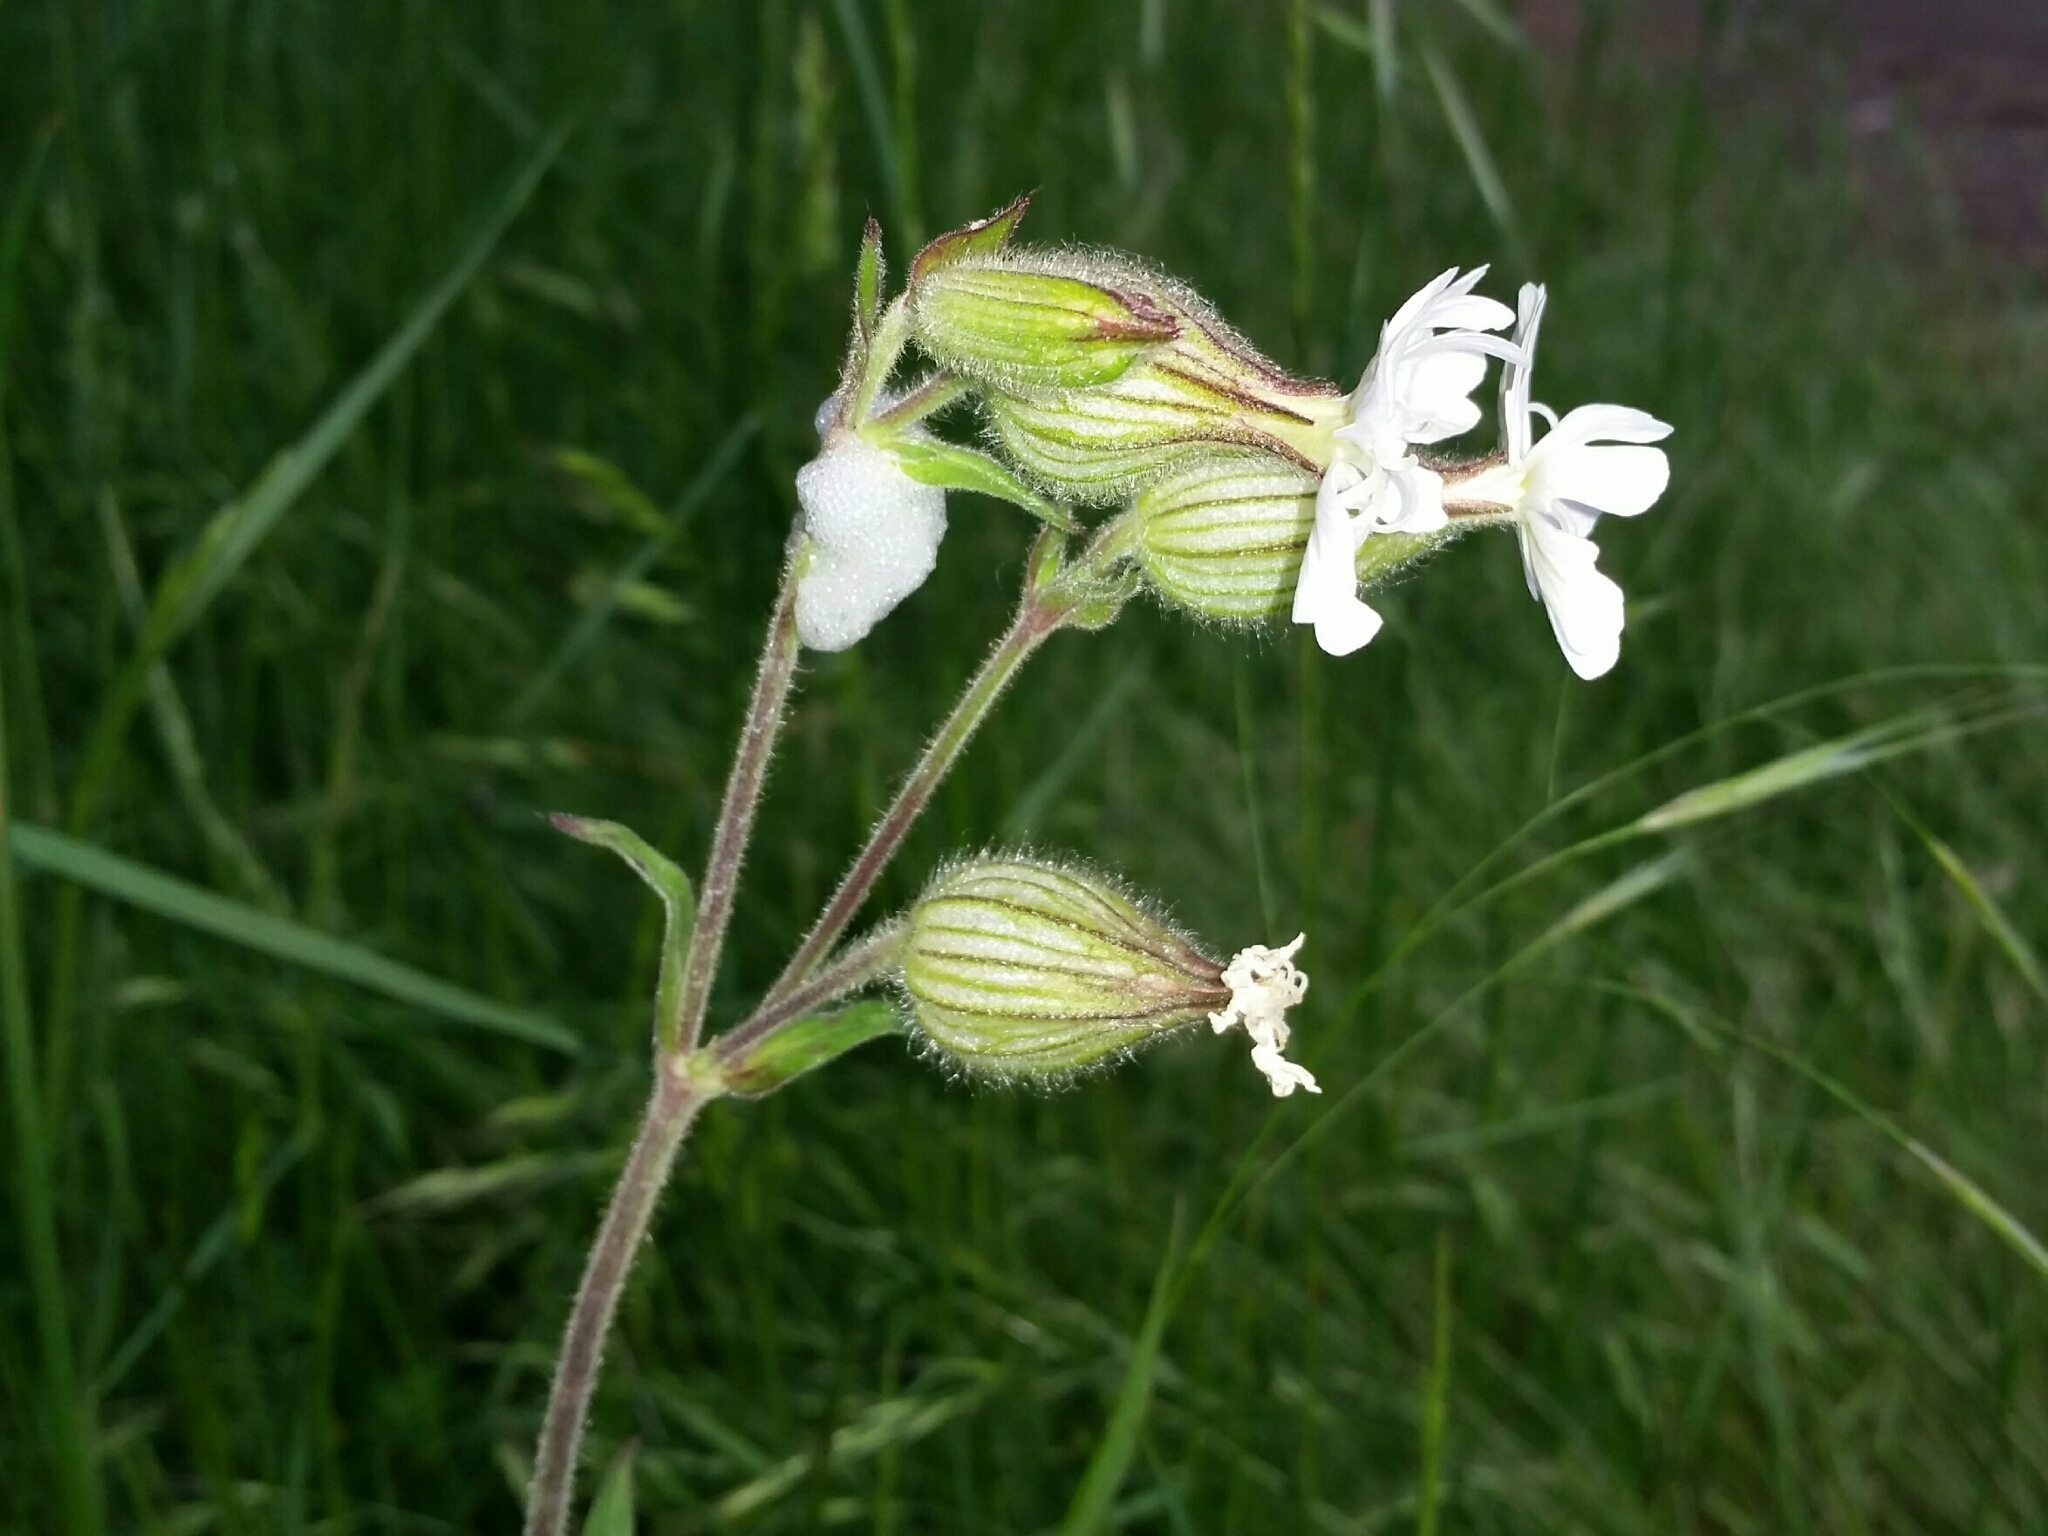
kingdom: Plantae
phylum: Tracheophyta
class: Magnoliopsida
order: Caryophyllales
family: Caryophyllaceae
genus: Silene
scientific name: Silene latifolia
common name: White campion
